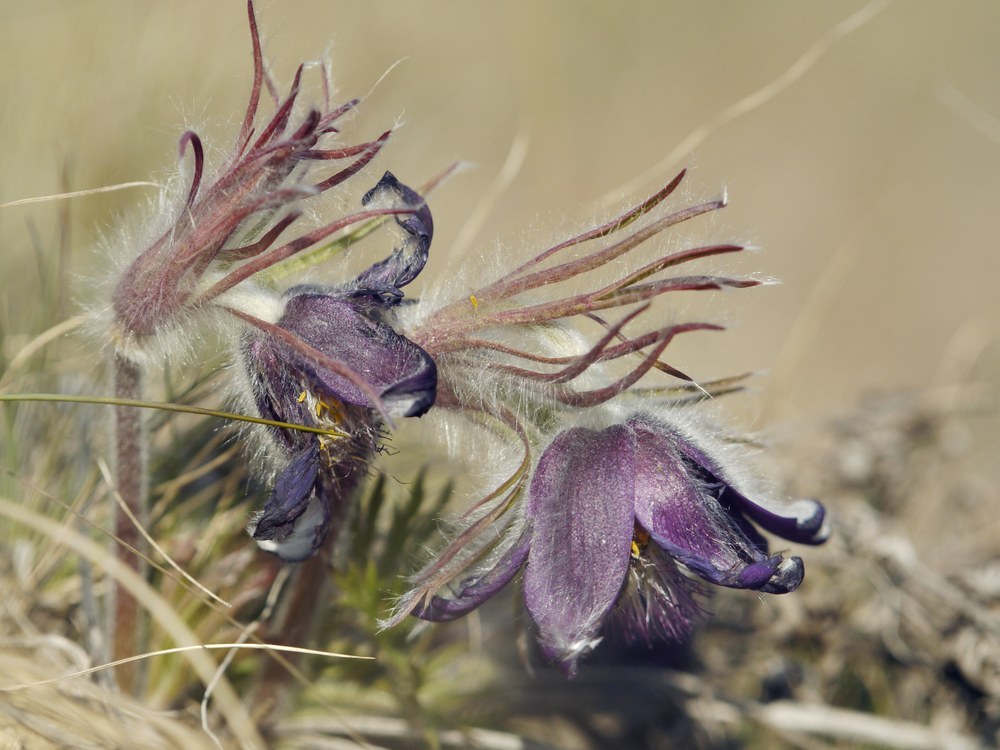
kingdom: Plantae
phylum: Tracheophyta
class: Magnoliopsida
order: Ranunculales
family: Ranunculaceae
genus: Pulsatilla
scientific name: Pulsatilla pratensis
